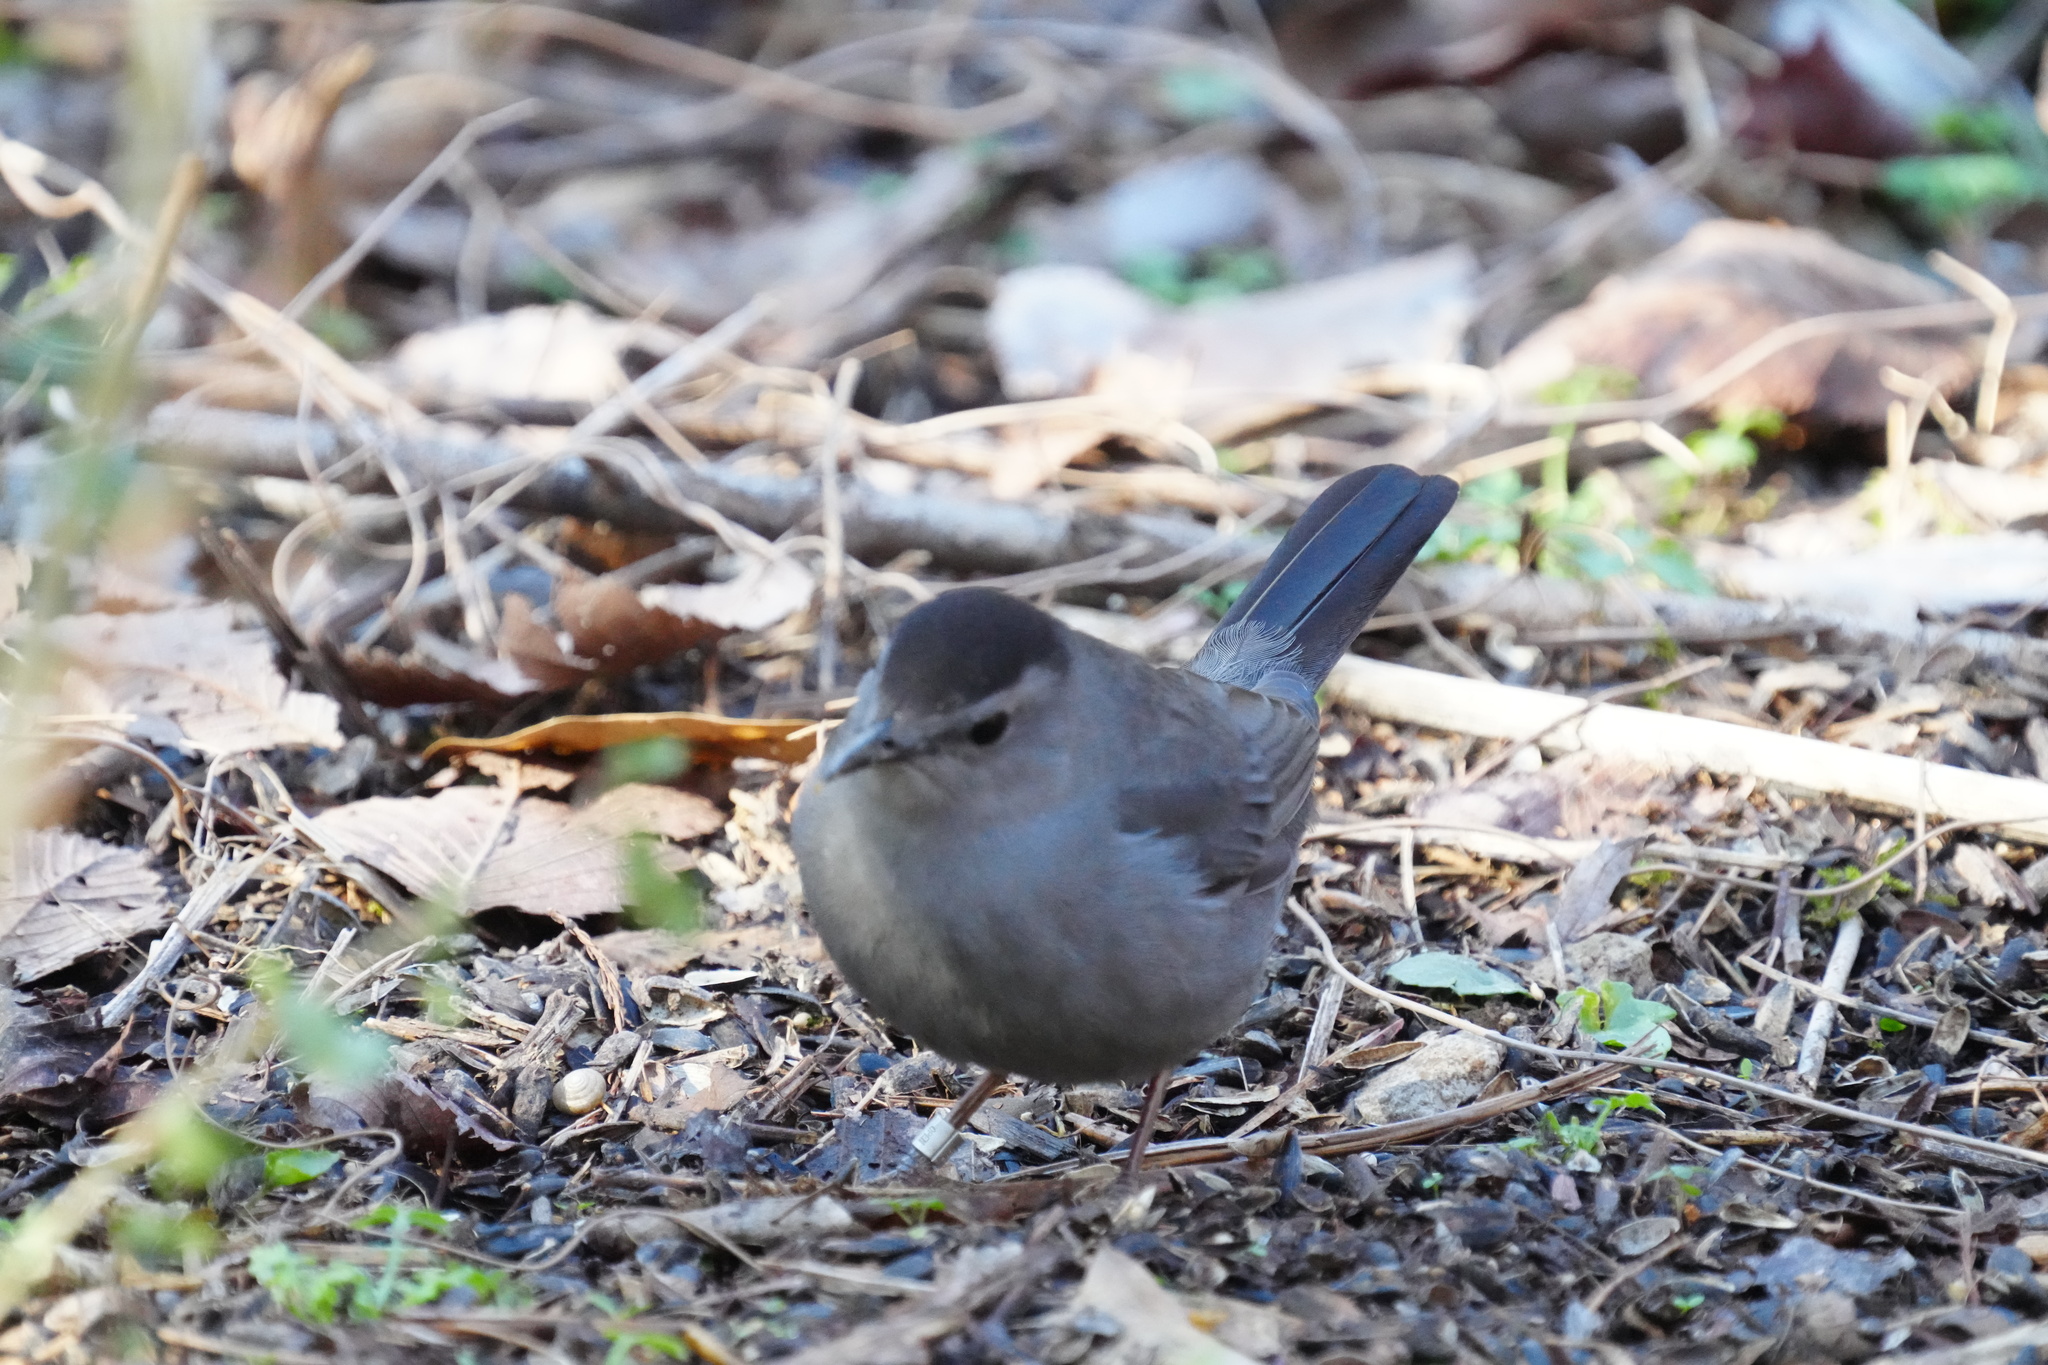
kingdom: Animalia
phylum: Chordata
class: Aves
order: Passeriformes
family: Mimidae
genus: Dumetella
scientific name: Dumetella carolinensis
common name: Gray catbird
